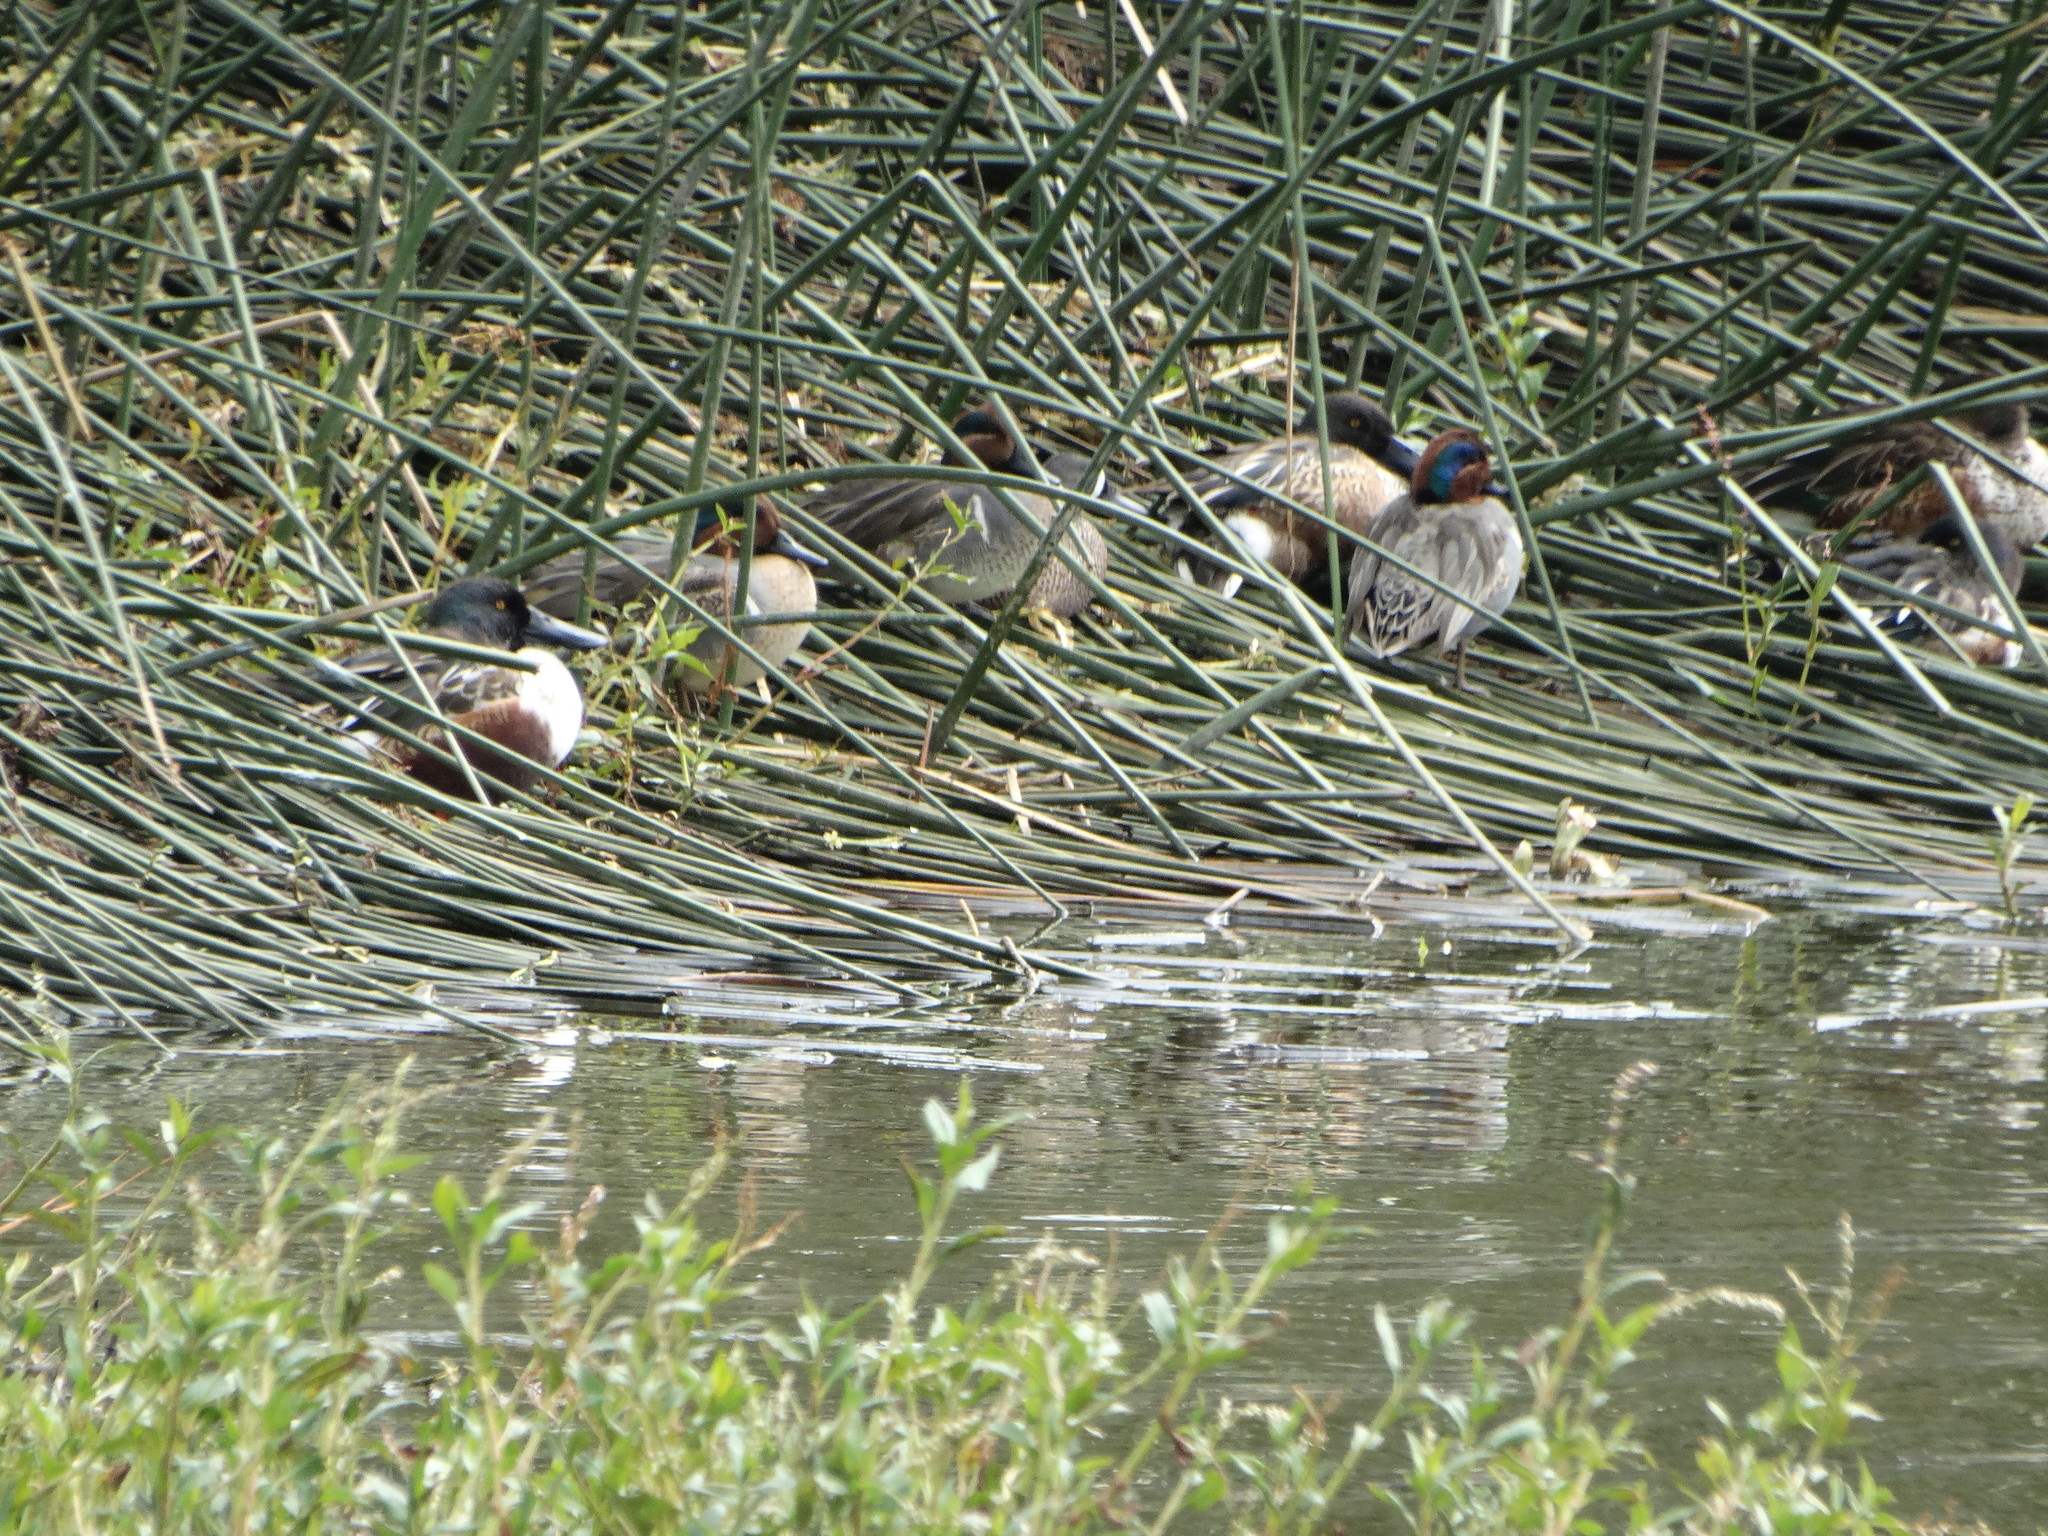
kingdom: Animalia
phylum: Chordata
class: Aves
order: Anseriformes
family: Anatidae
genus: Anas
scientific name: Anas crecca
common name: Eurasian teal
